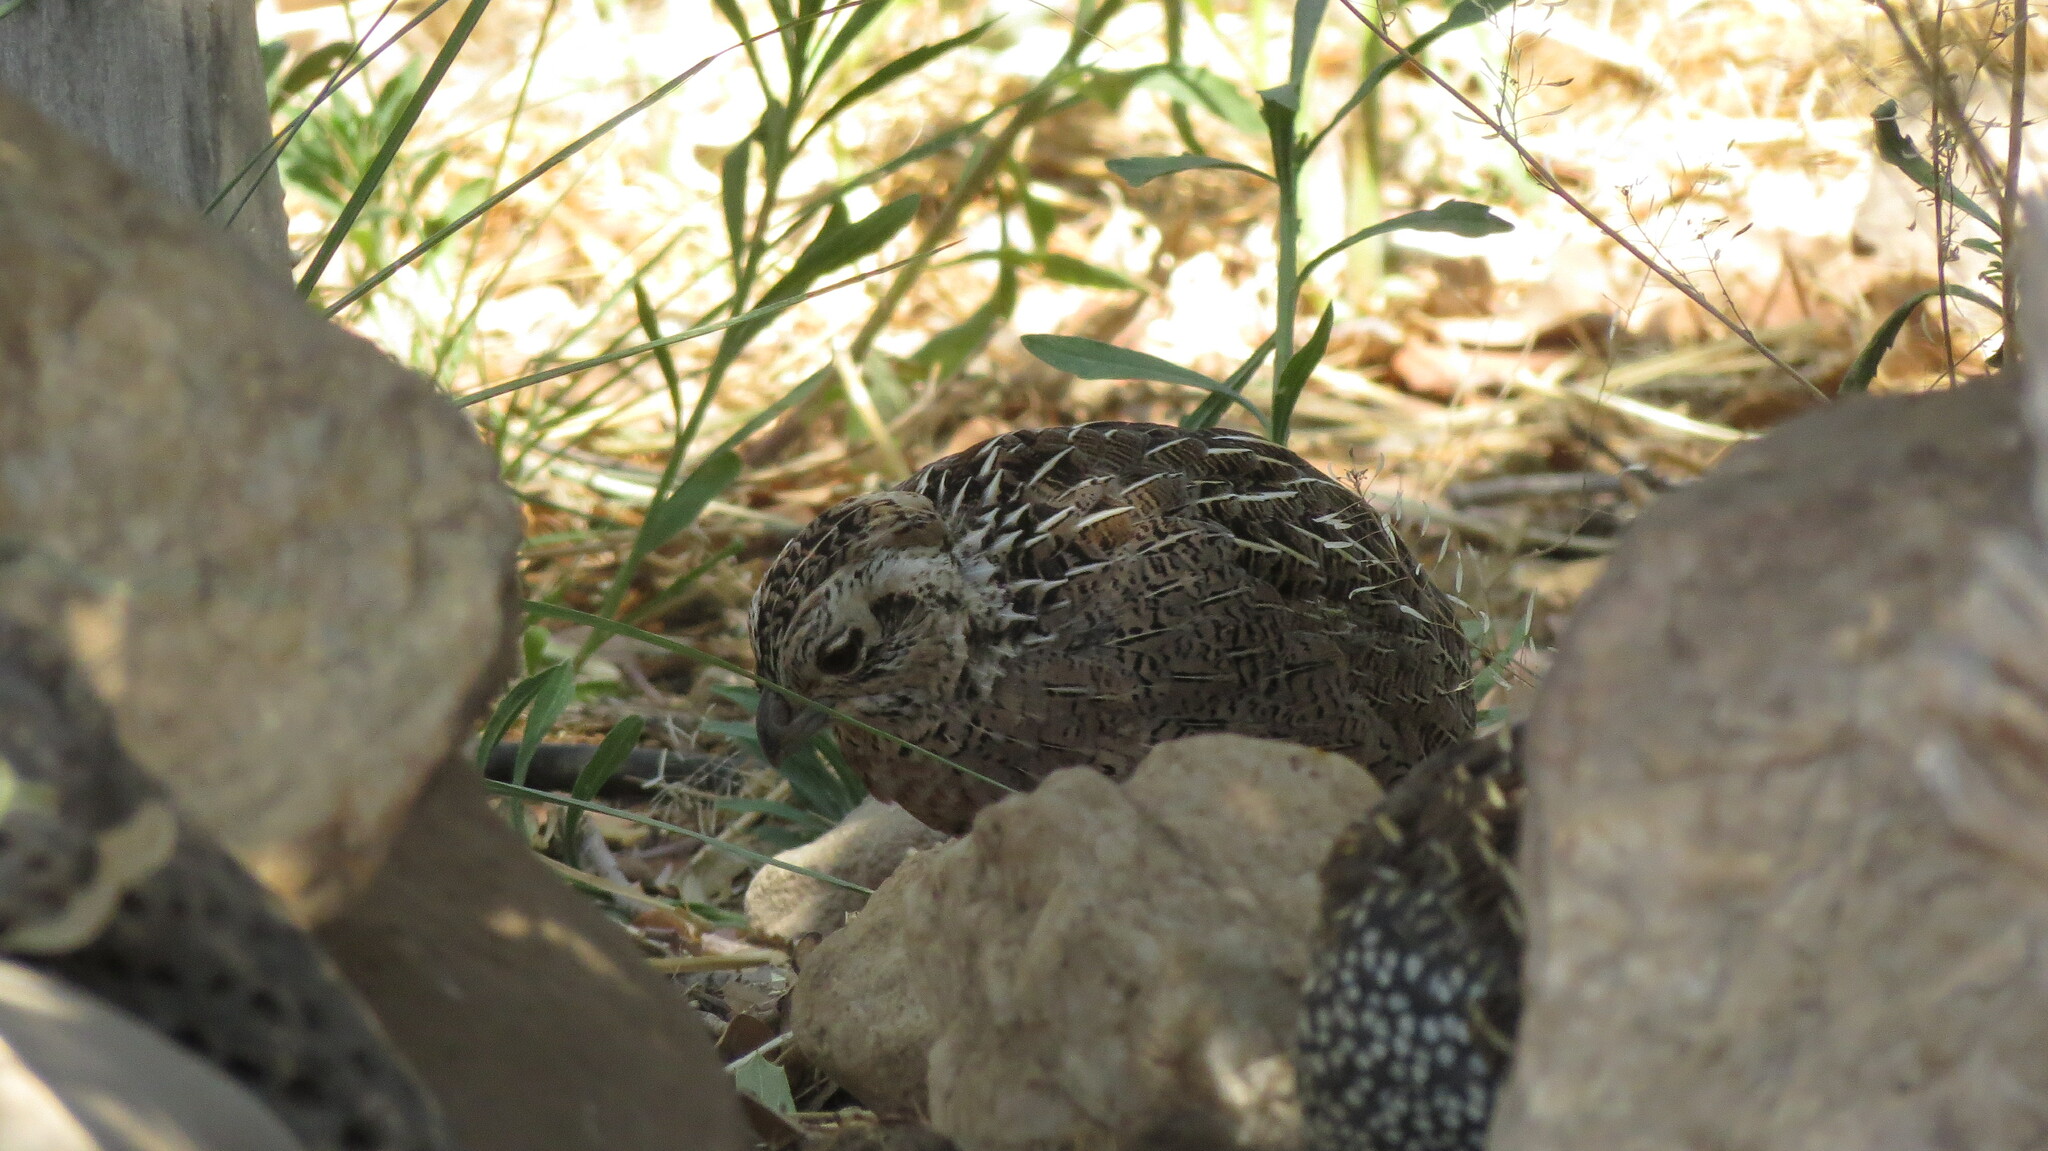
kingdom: Animalia
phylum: Chordata
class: Aves
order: Galliformes
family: Odontophoridae
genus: Cyrtonyx
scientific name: Cyrtonyx montezumae
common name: Montezuma quail
